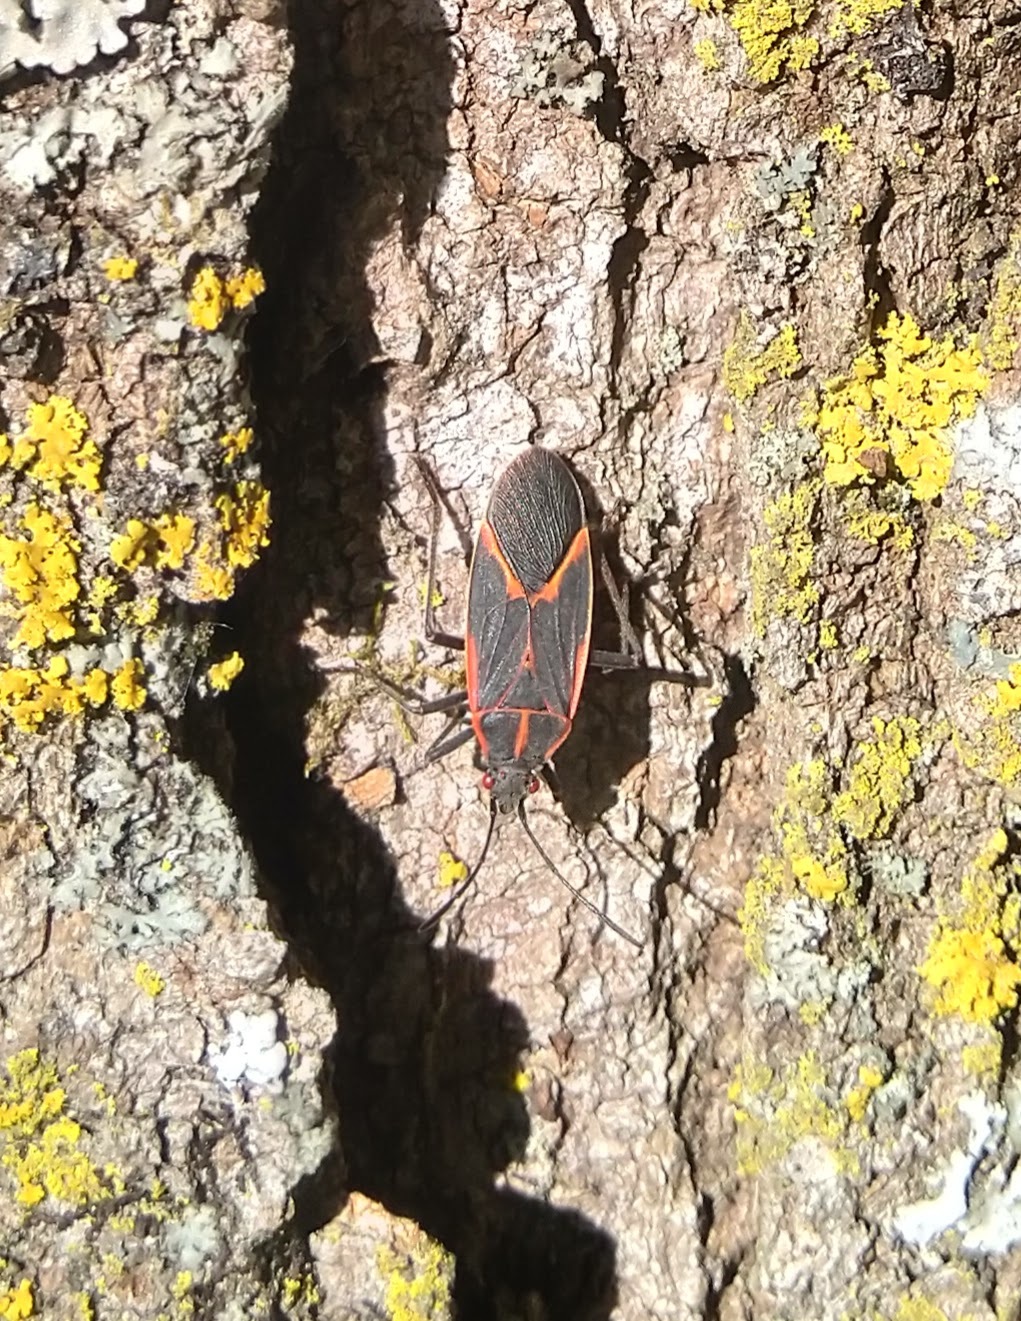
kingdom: Animalia
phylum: Arthropoda
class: Insecta
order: Hemiptera
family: Rhopalidae
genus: Boisea
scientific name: Boisea trivittata
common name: Boxelder bug
